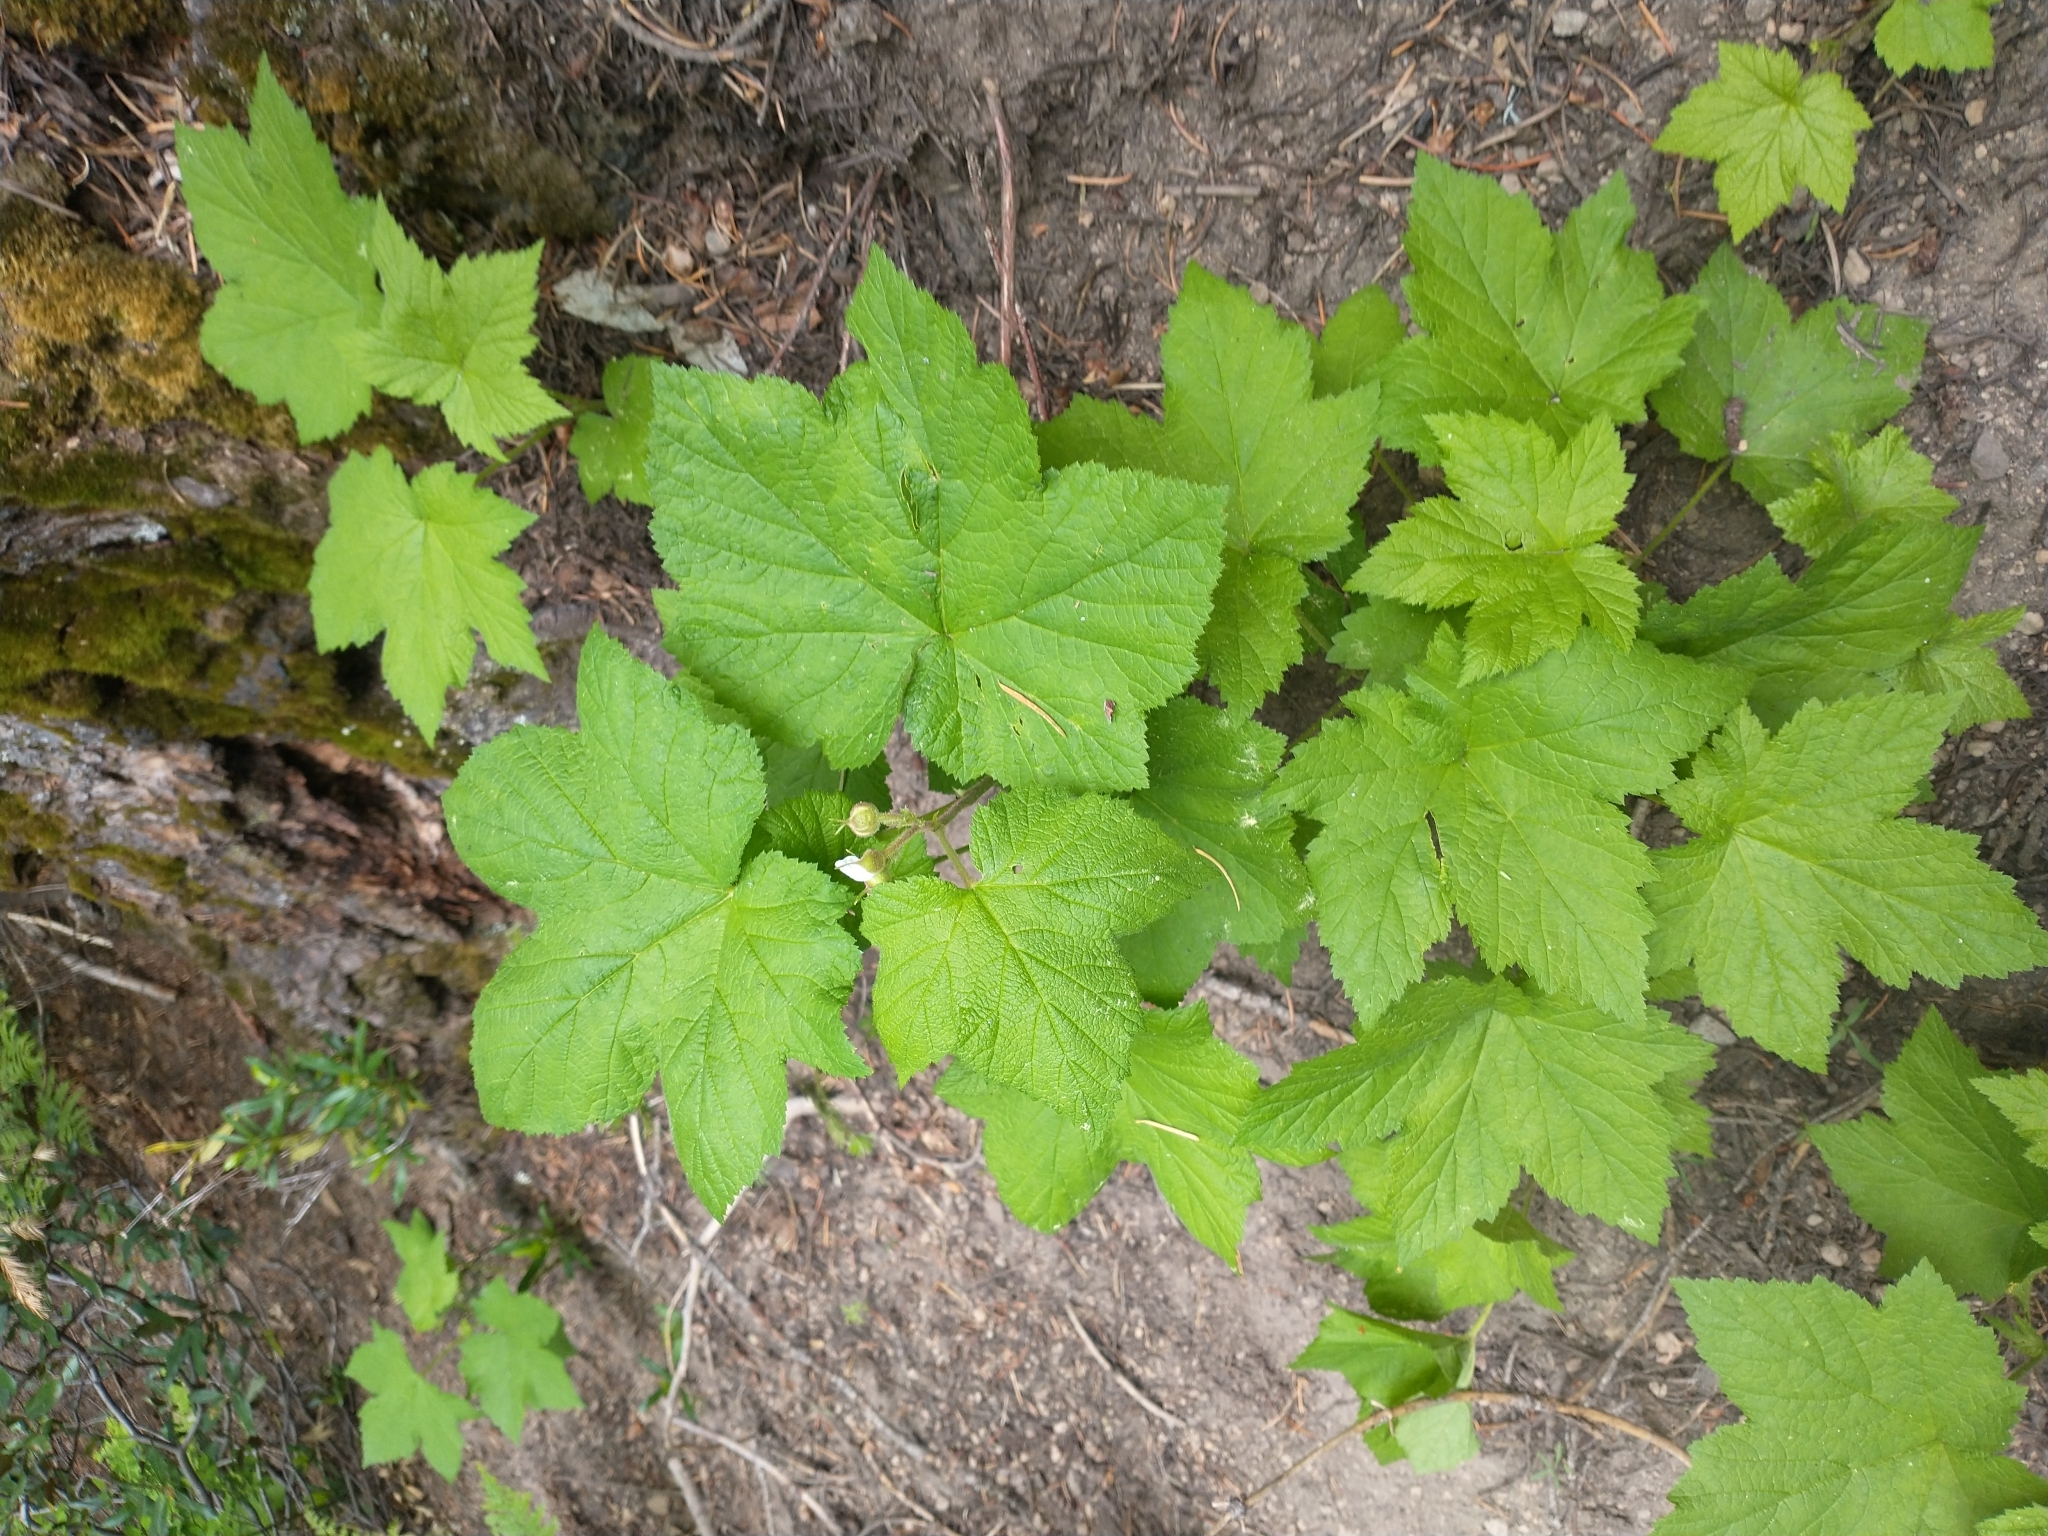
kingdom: Plantae
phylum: Tracheophyta
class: Magnoliopsida
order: Rosales
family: Rosaceae
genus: Rubus
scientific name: Rubus parviflorus
